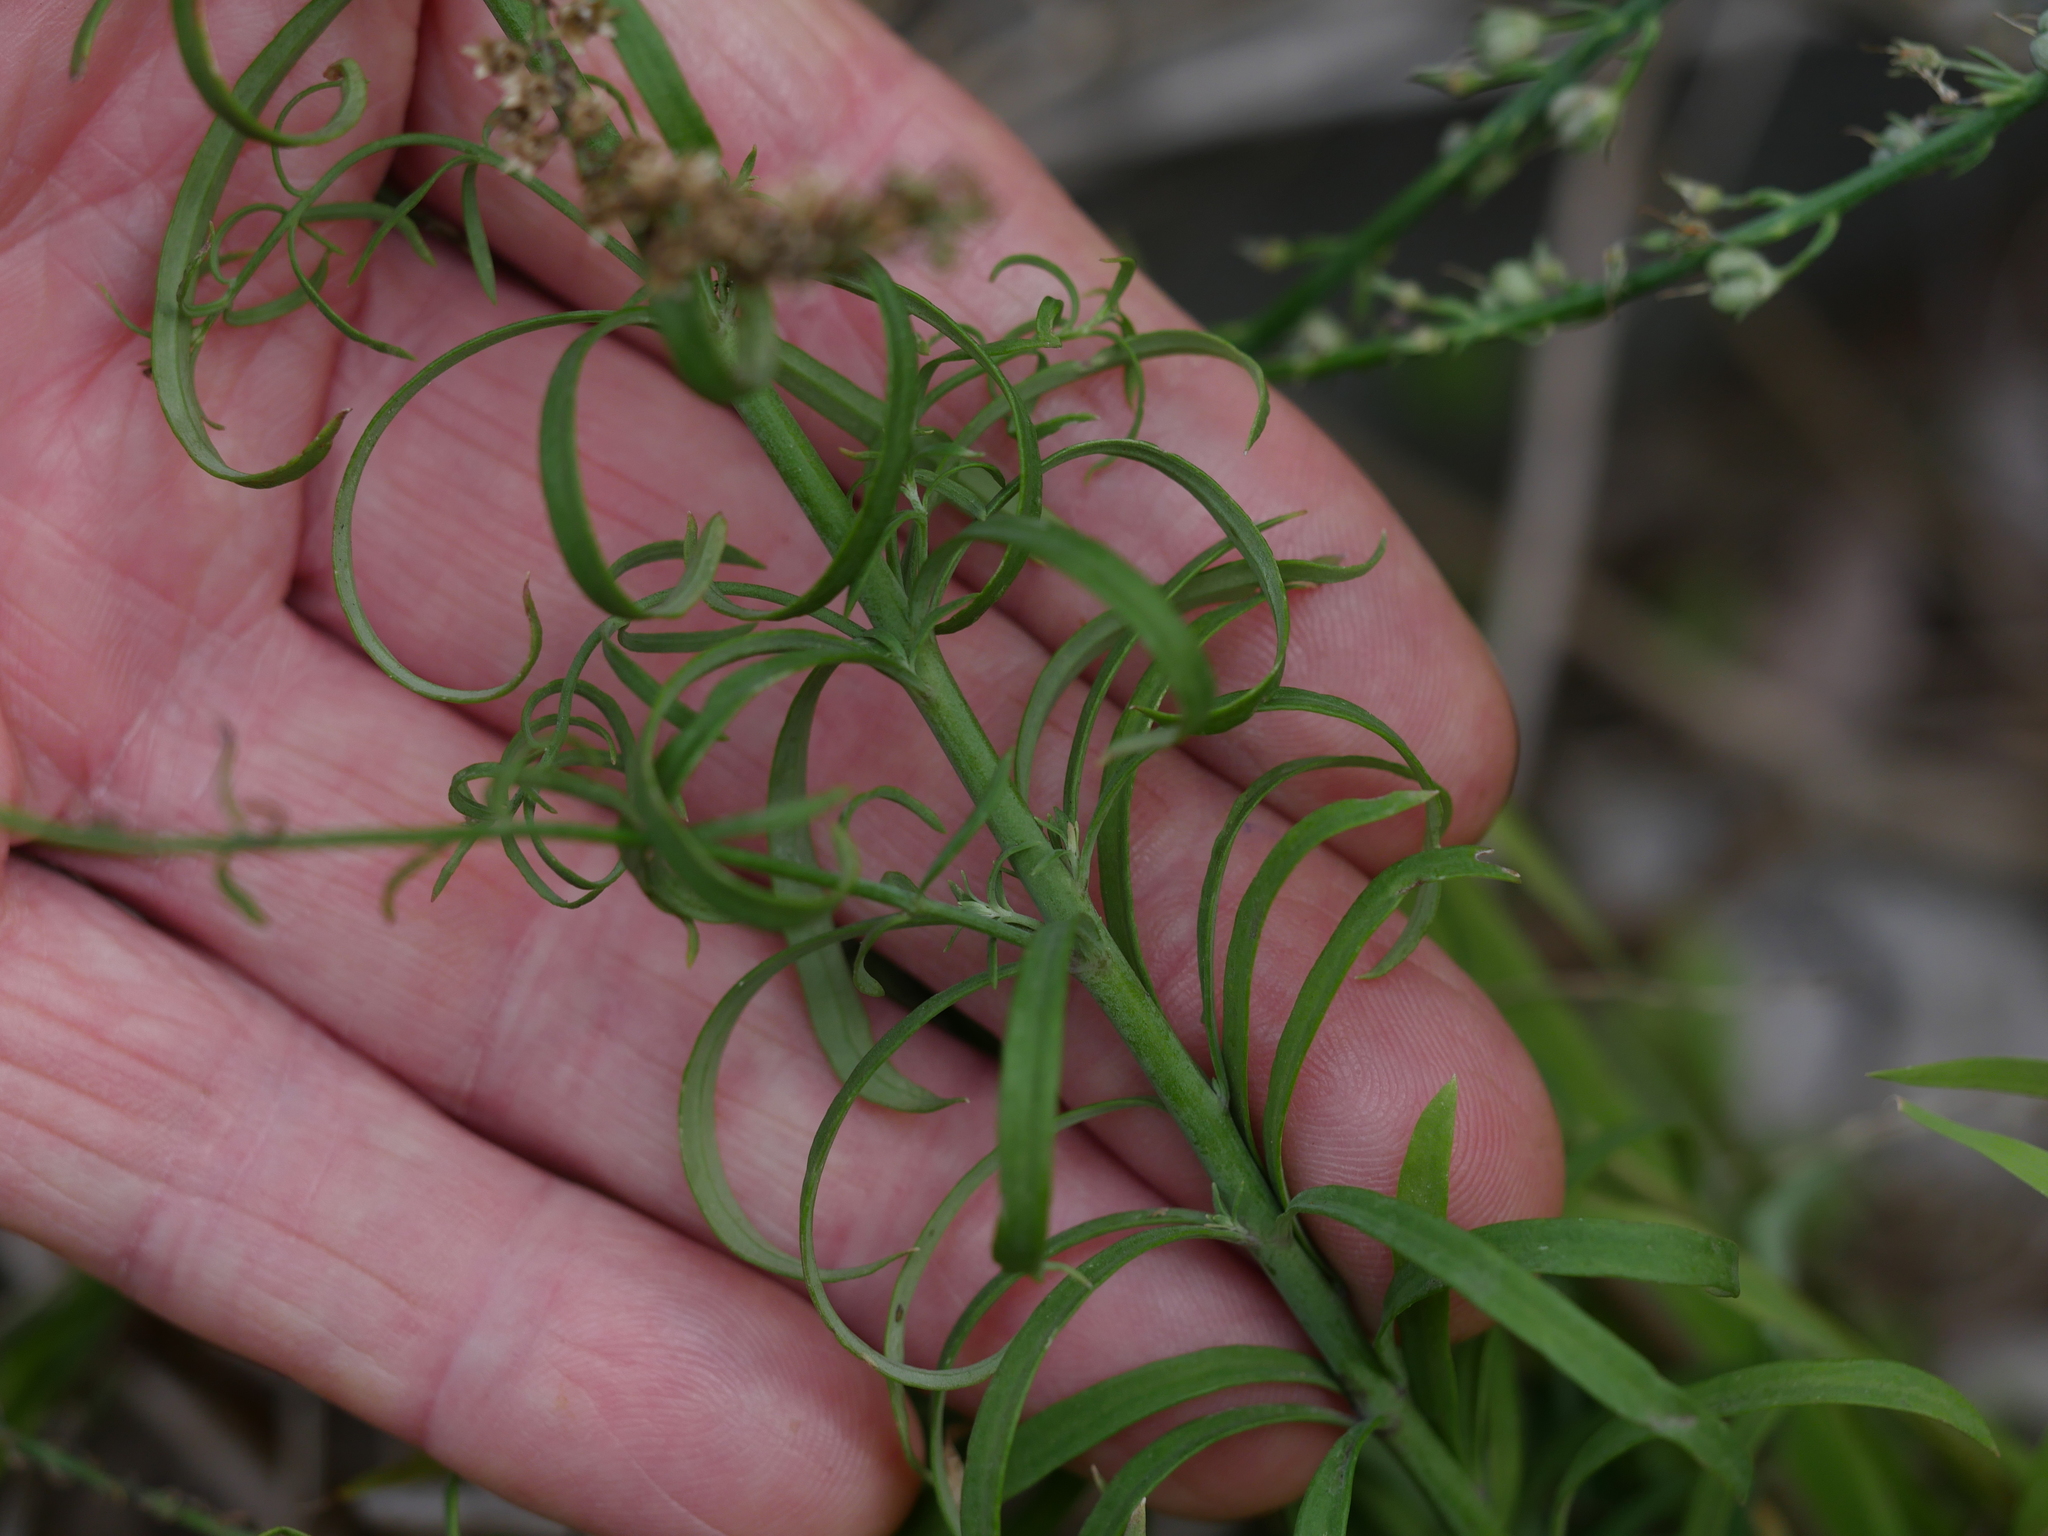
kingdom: Plantae
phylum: Tracheophyta
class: Magnoliopsida
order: Lamiales
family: Plantaginaceae
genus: Linaria
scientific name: Linaria purpurea
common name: Purple toadflax
